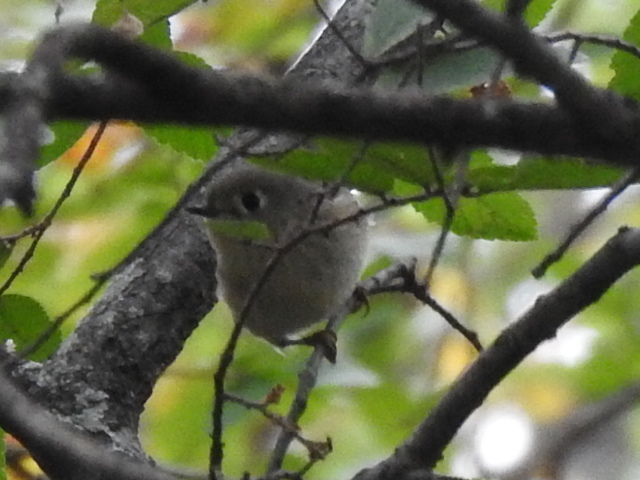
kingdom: Animalia
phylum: Chordata
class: Aves
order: Passeriformes
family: Regulidae
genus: Regulus
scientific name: Regulus calendula
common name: Ruby-crowned kinglet
